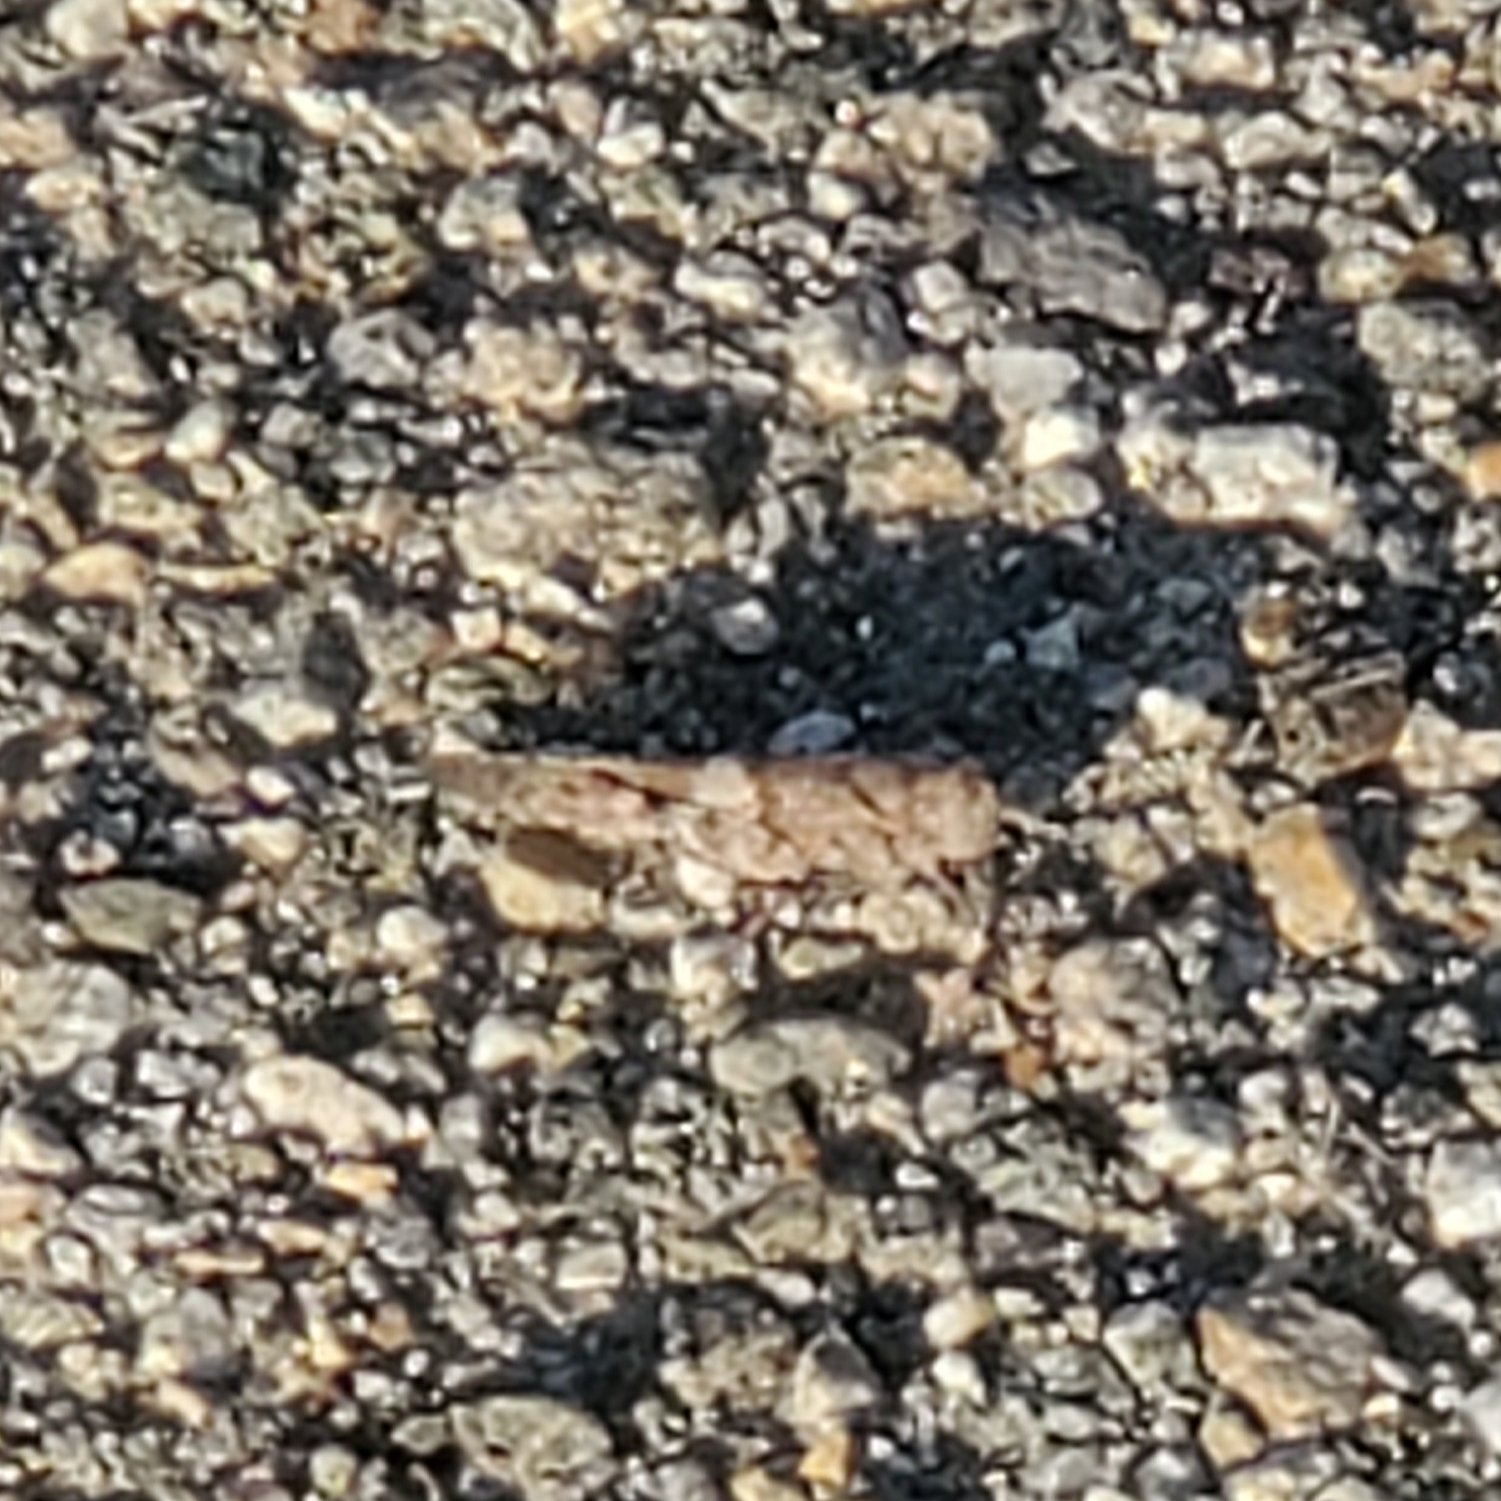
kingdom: Animalia
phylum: Arthropoda
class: Insecta
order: Orthoptera
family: Acrididae
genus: Trimerotropis
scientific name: Trimerotropis pallidipennis
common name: Pallid-winged grasshopper
